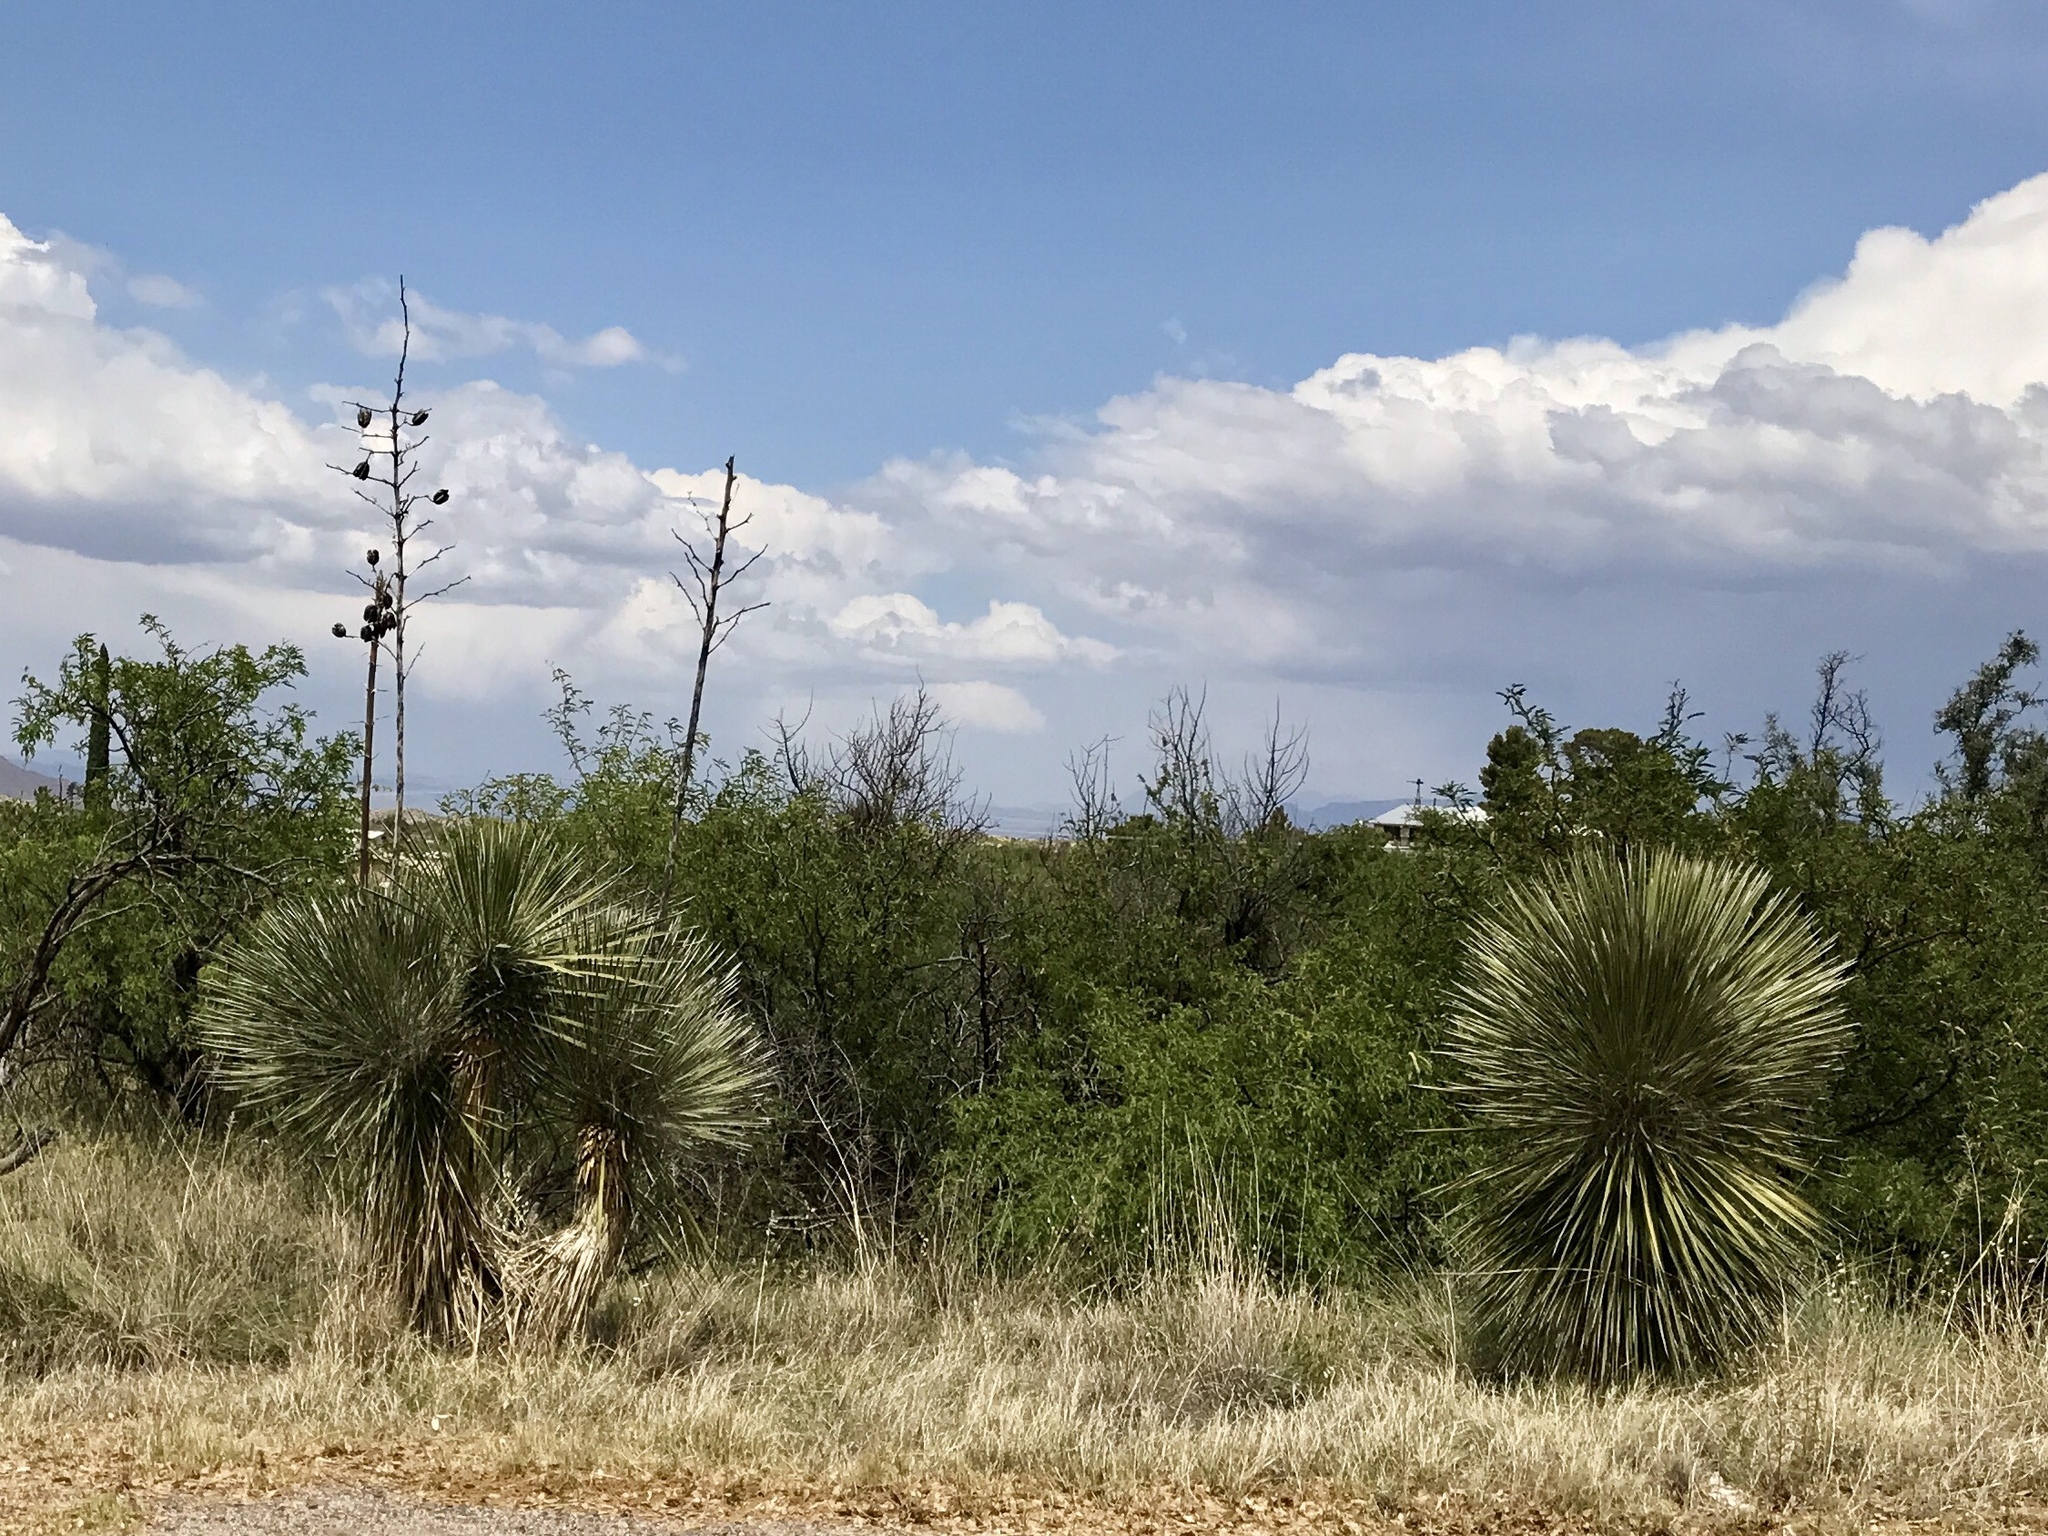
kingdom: Plantae
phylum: Tracheophyta
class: Liliopsida
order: Asparagales
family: Asparagaceae
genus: Yucca
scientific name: Yucca elata
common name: Palmella
